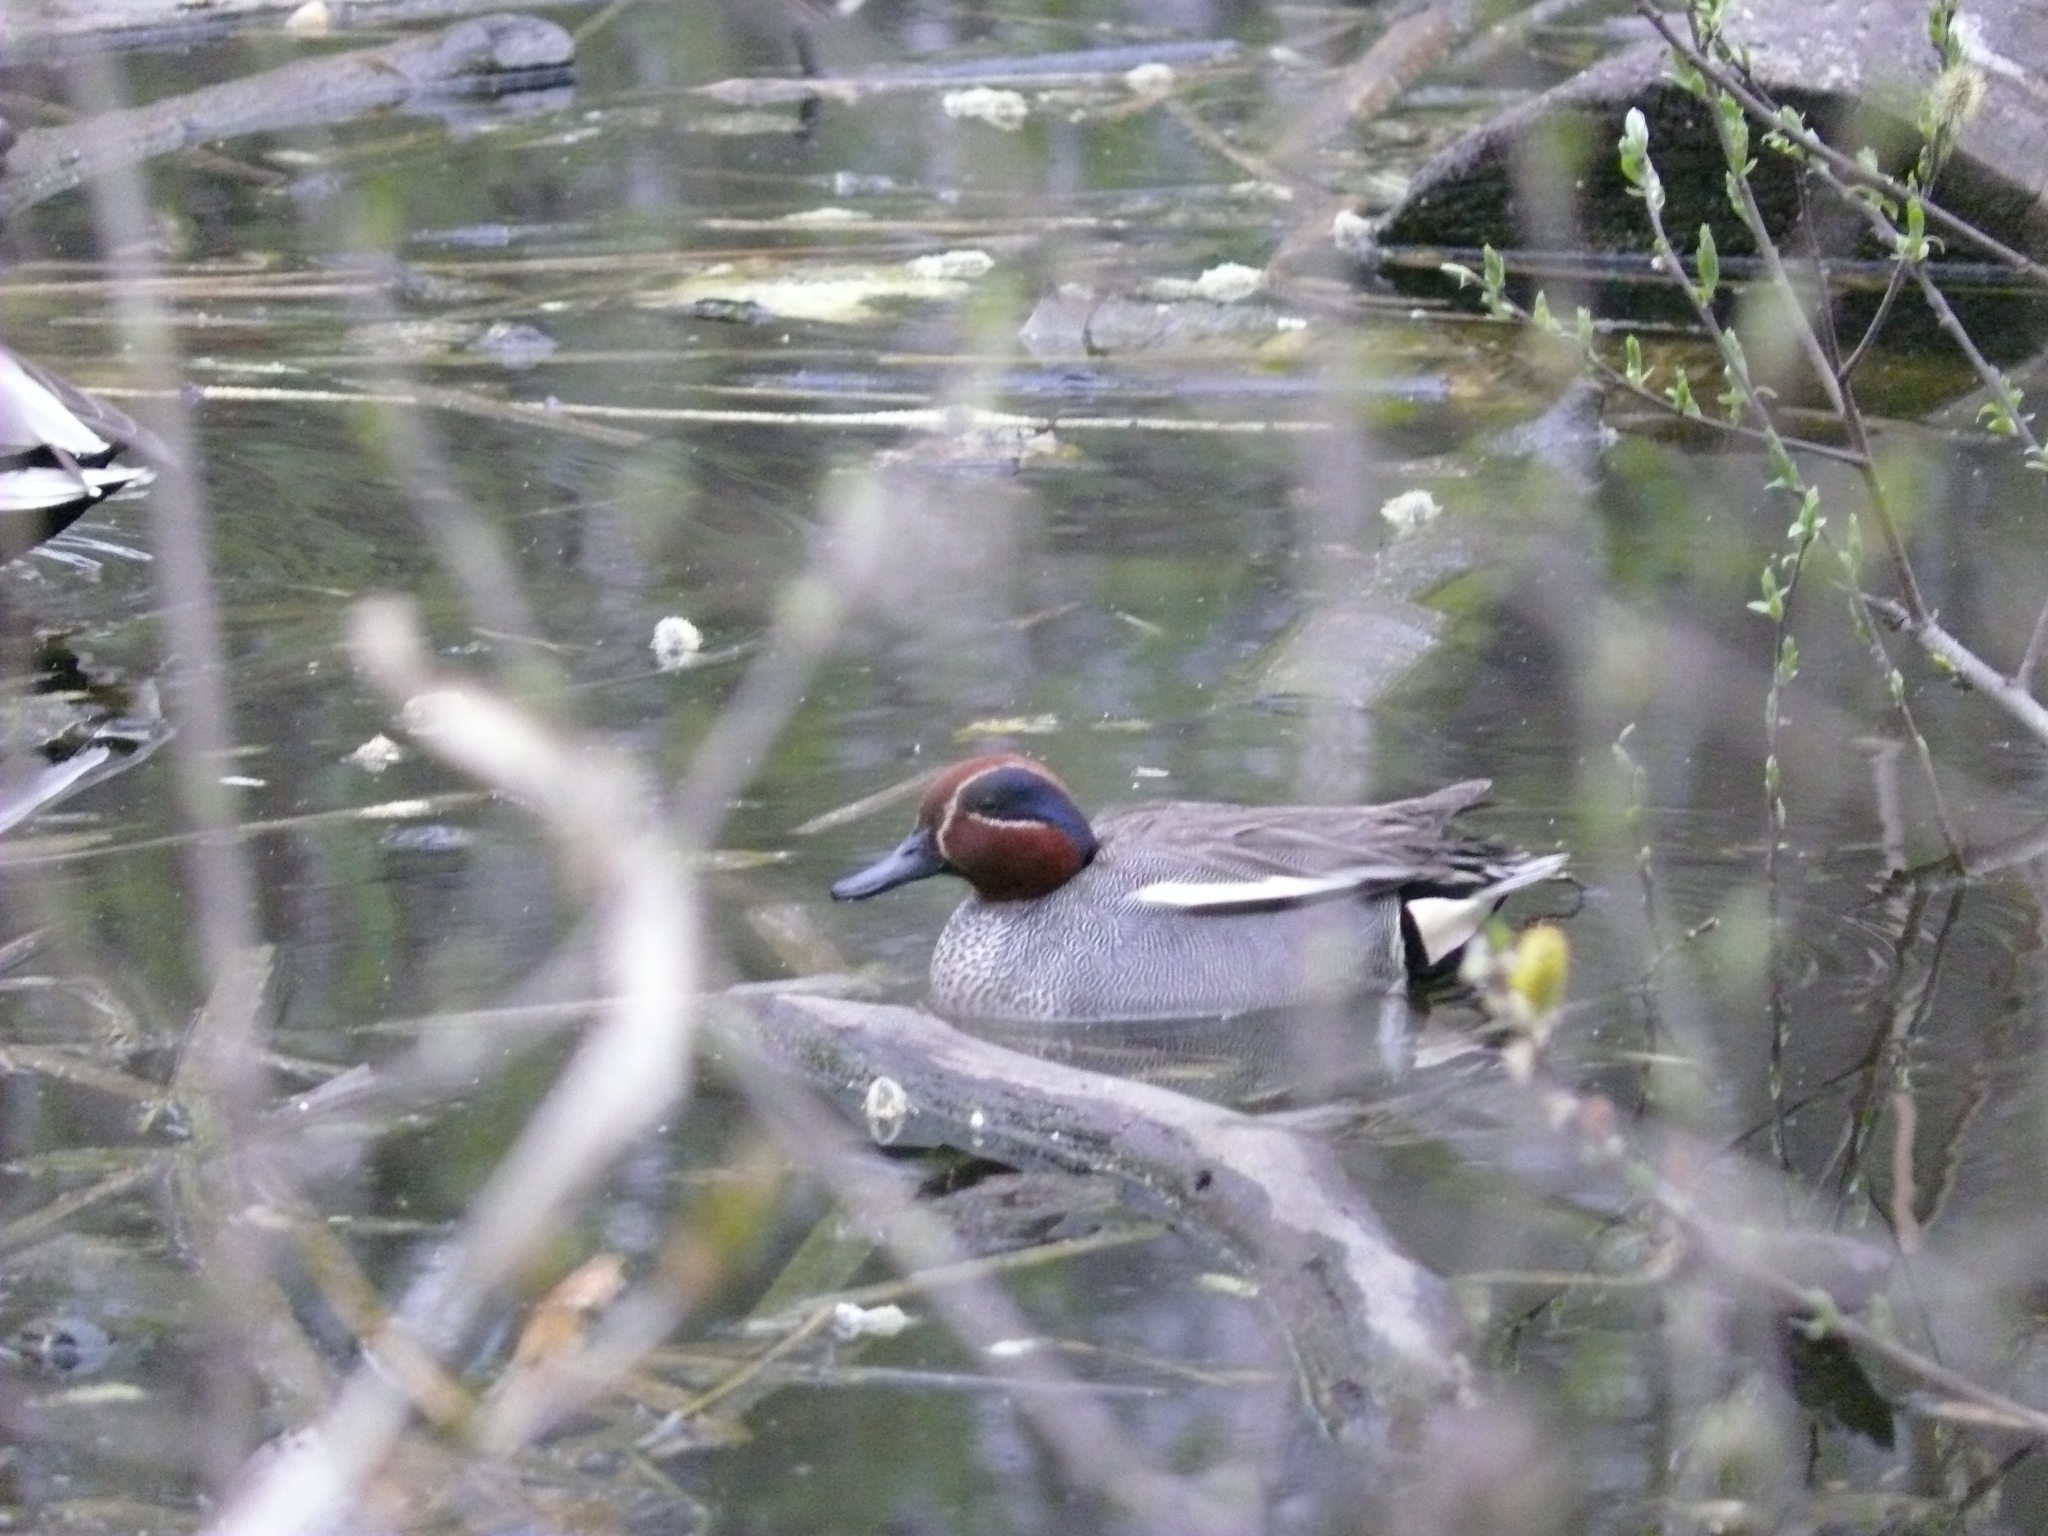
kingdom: Animalia
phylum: Chordata
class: Aves
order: Anseriformes
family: Anatidae
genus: Anas
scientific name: Anas crecca
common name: Eurasian teal
